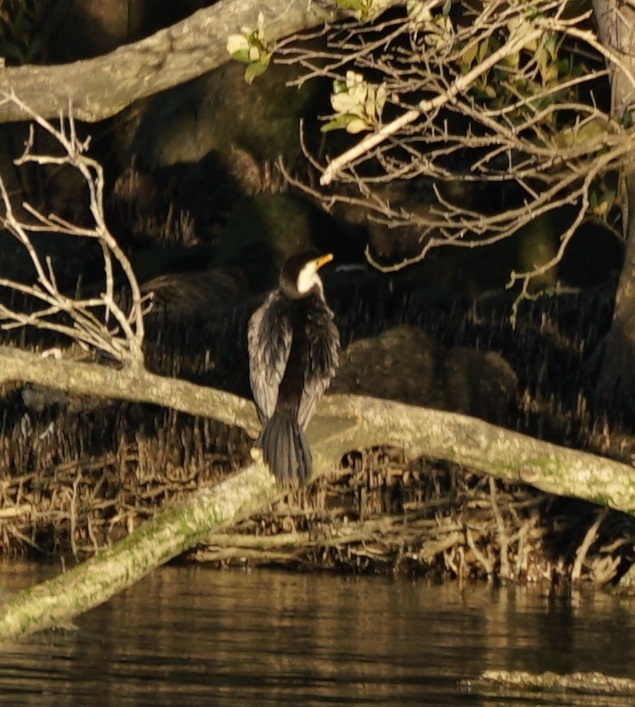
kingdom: Animalia
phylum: Chordata
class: Aves
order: Suliformes
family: Phalacrocoracidae
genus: Microcarbo
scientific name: Microcarbo melanoleucos
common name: Little pied cormorant
